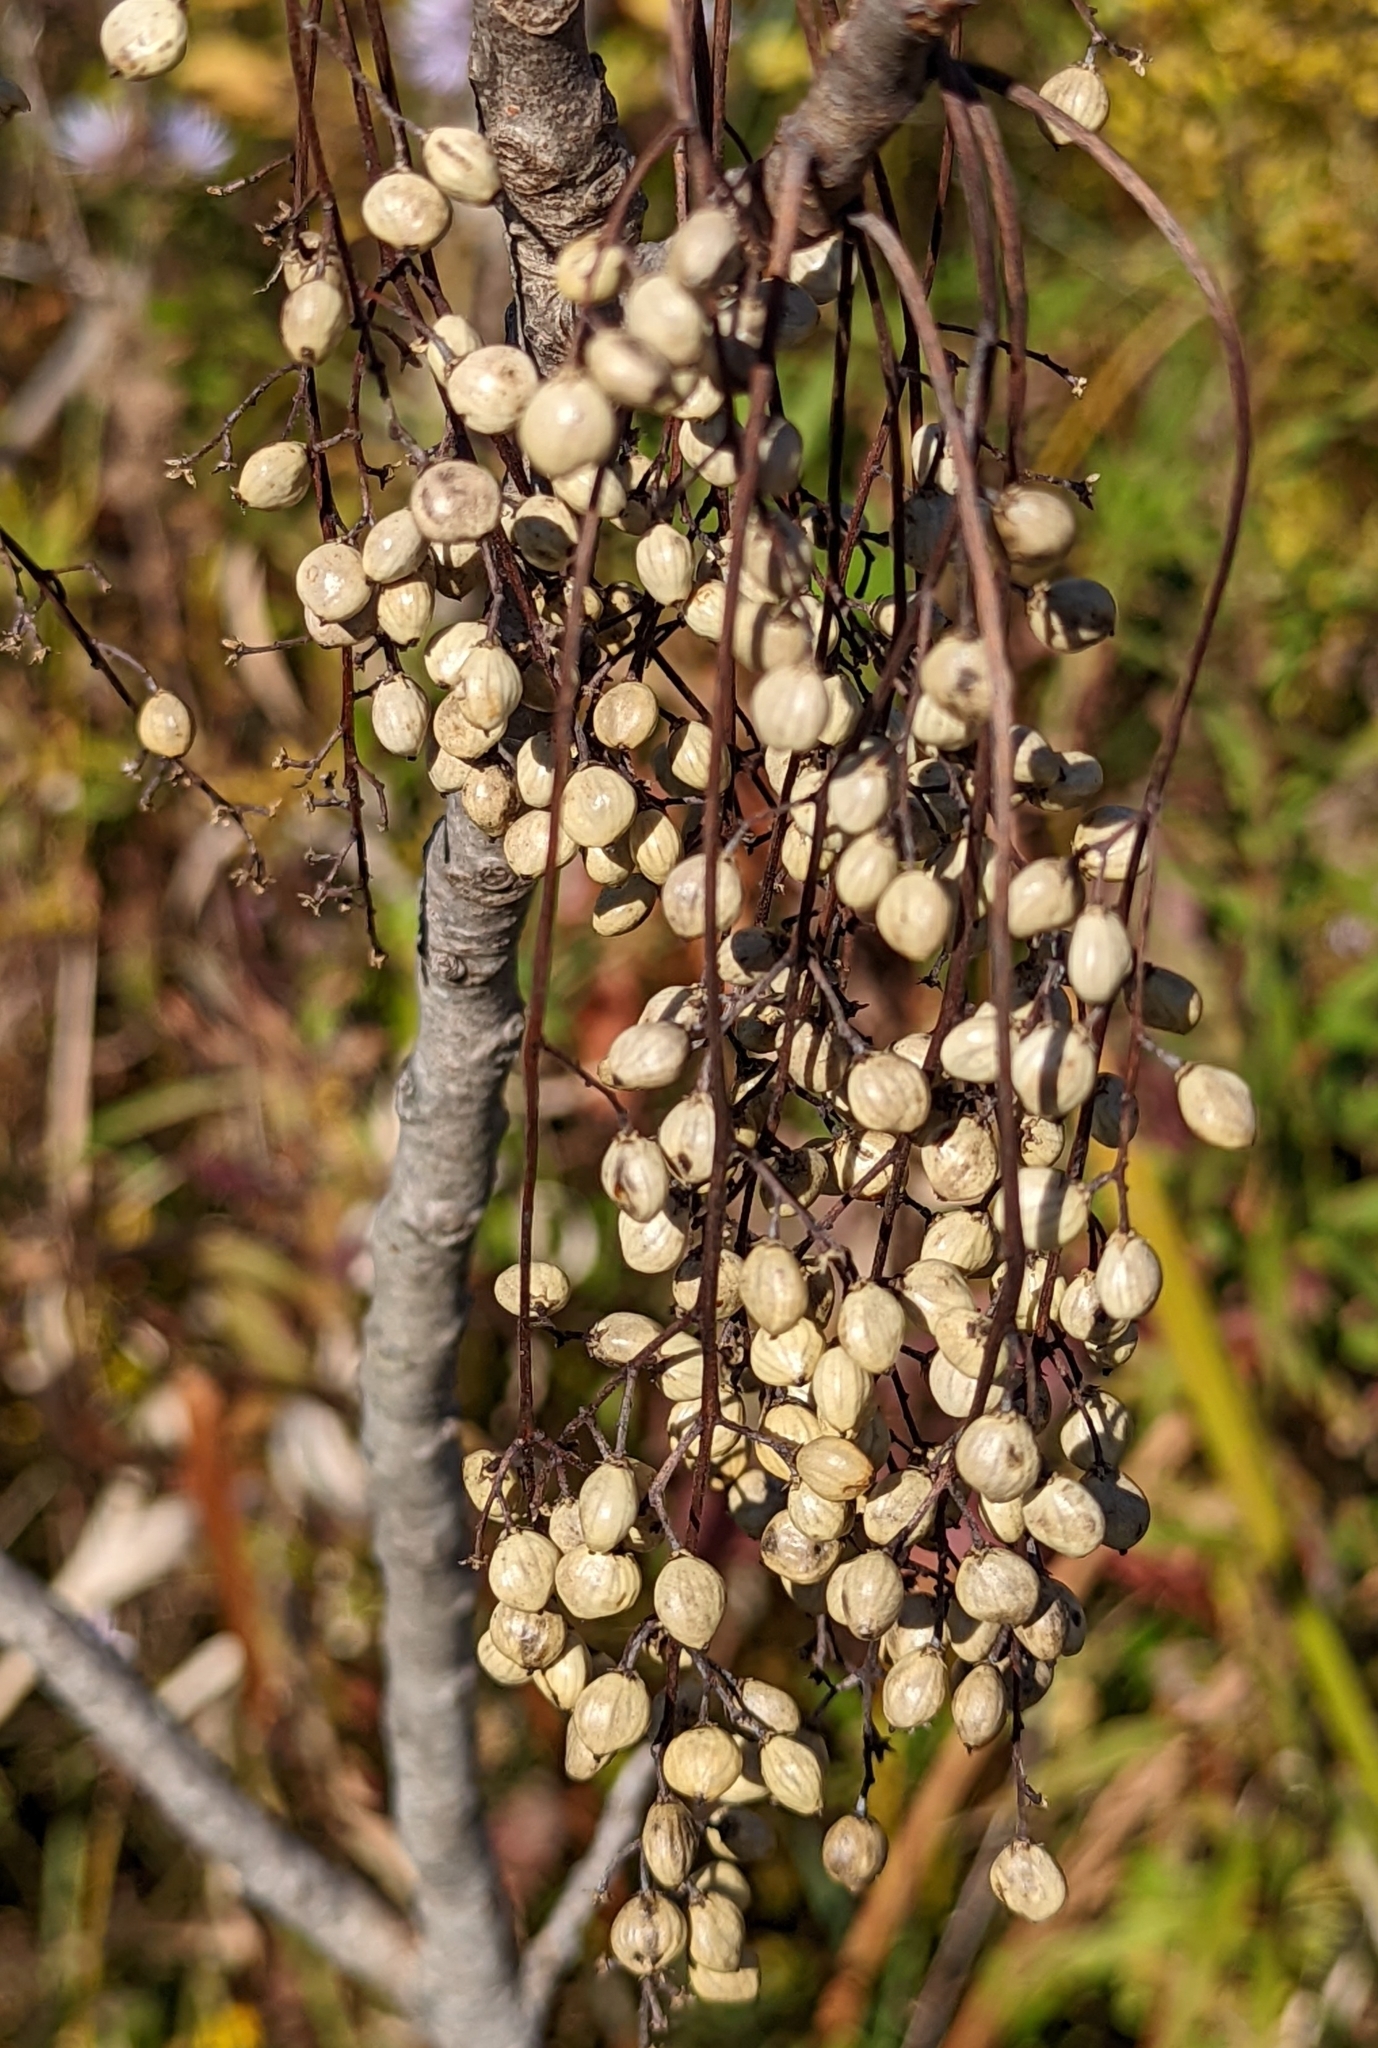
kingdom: Plantae
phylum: Tracheophyta
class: Magnoliopsida
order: Sapindales
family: Anacardiaceae
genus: Toxicodendron
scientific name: Toxicodendron vernix
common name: Poison sumac
